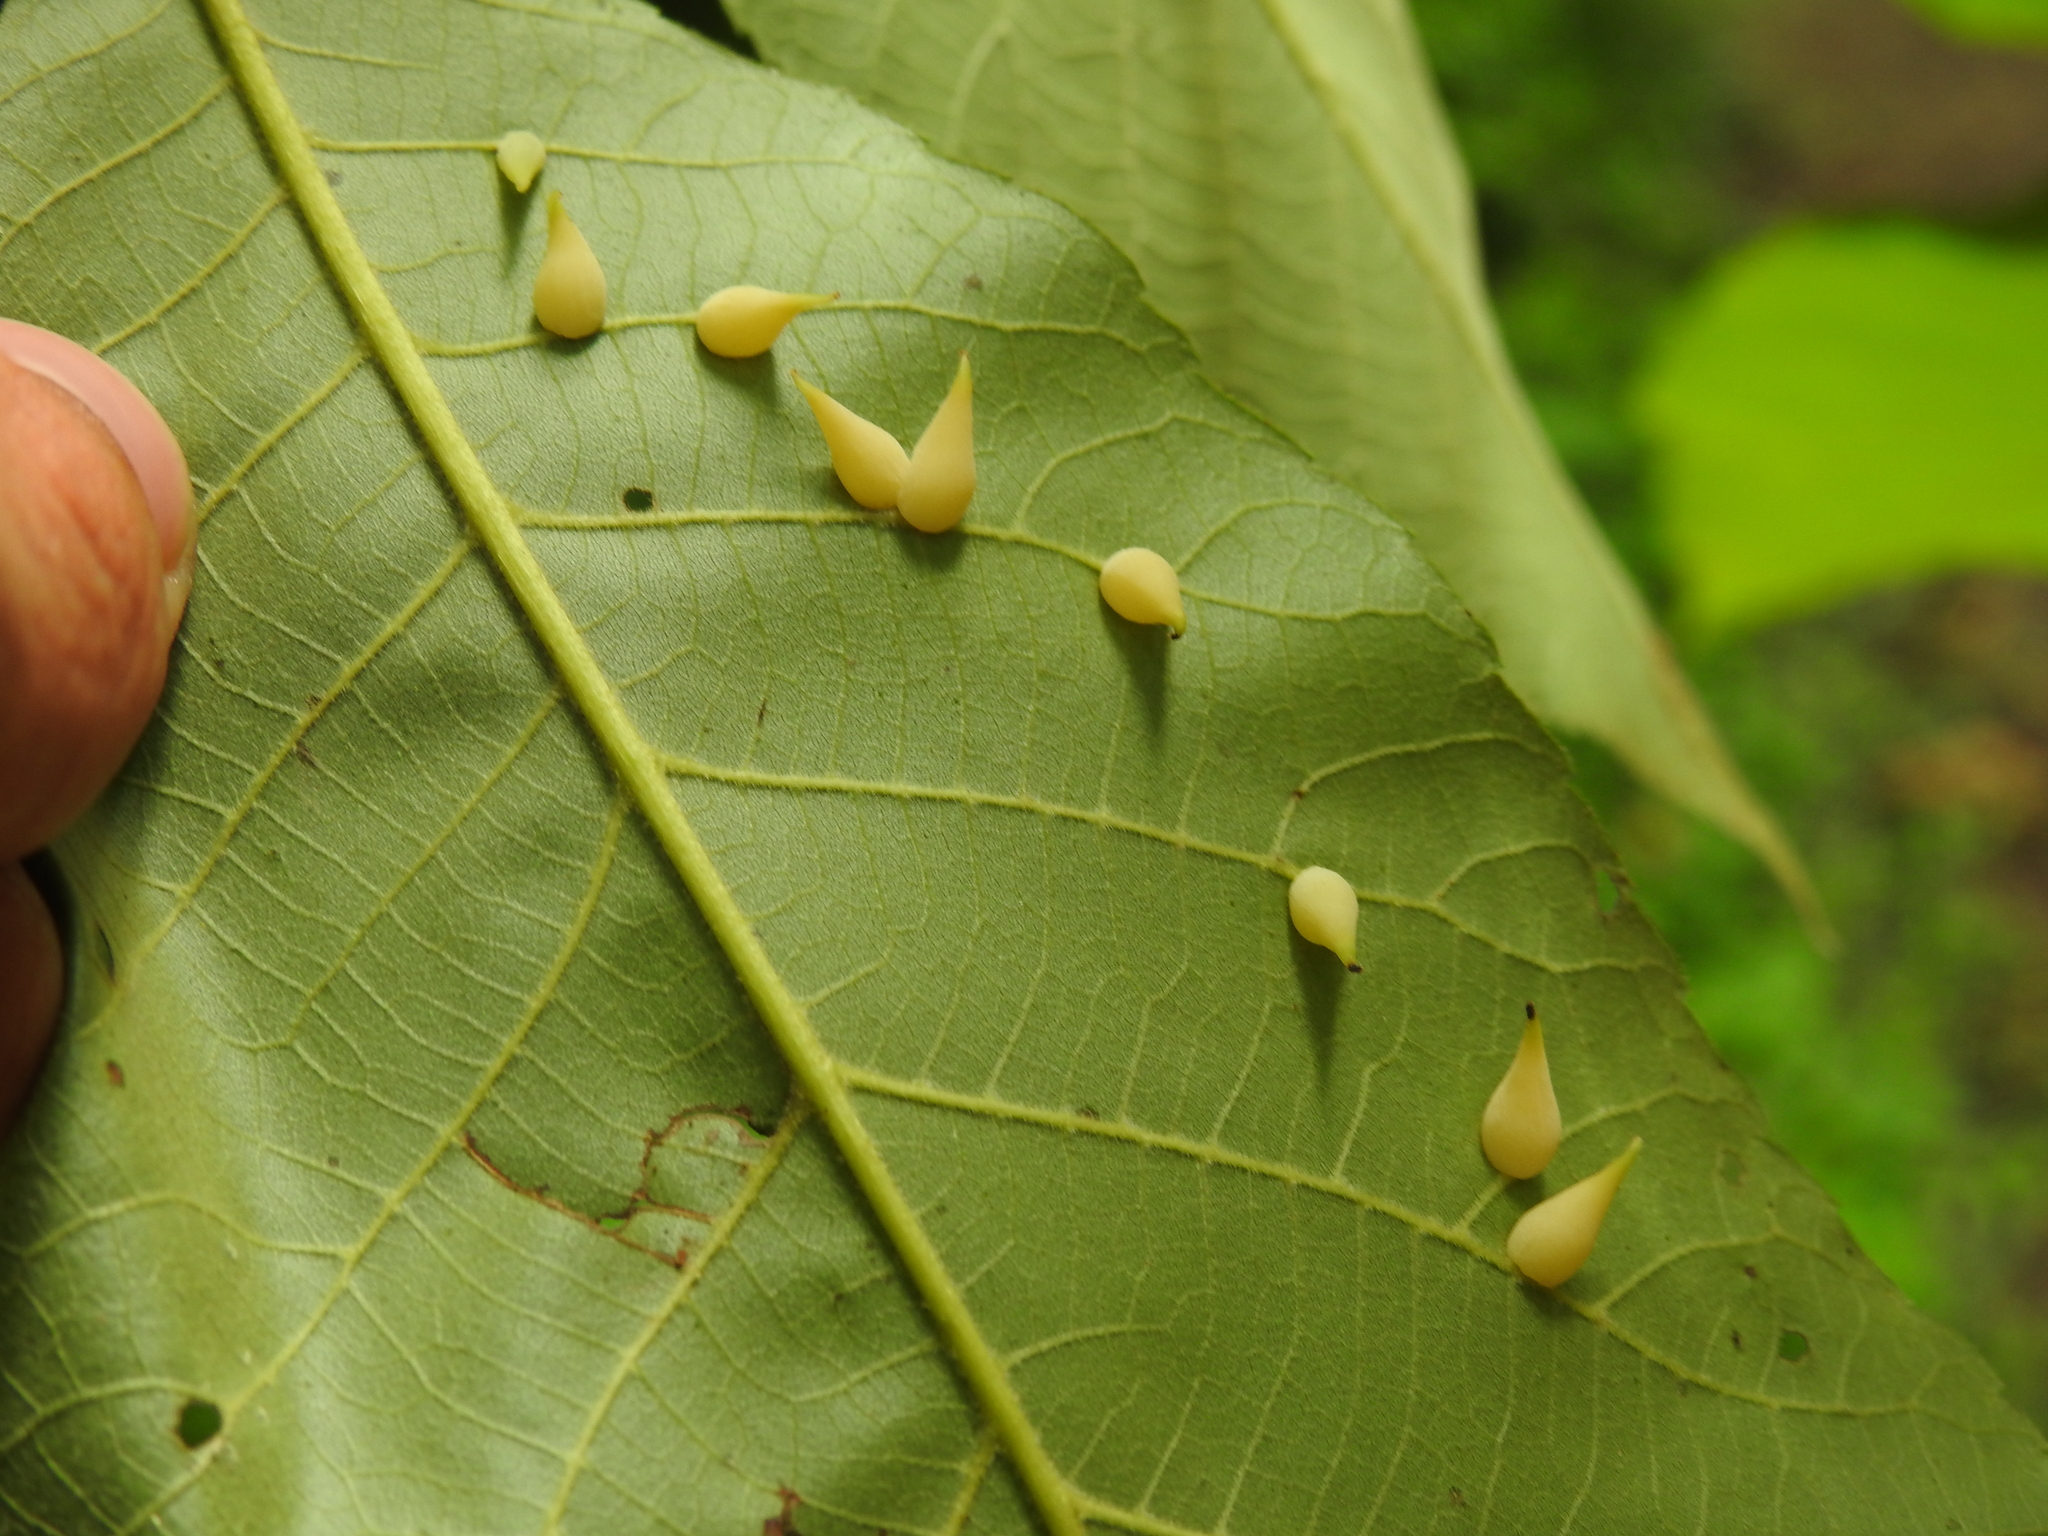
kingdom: Animalia
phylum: Arthropoda
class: Insecta
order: Diptera
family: Cecidomyiidae
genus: Caryomyia
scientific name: Caryomyia caryaecola
